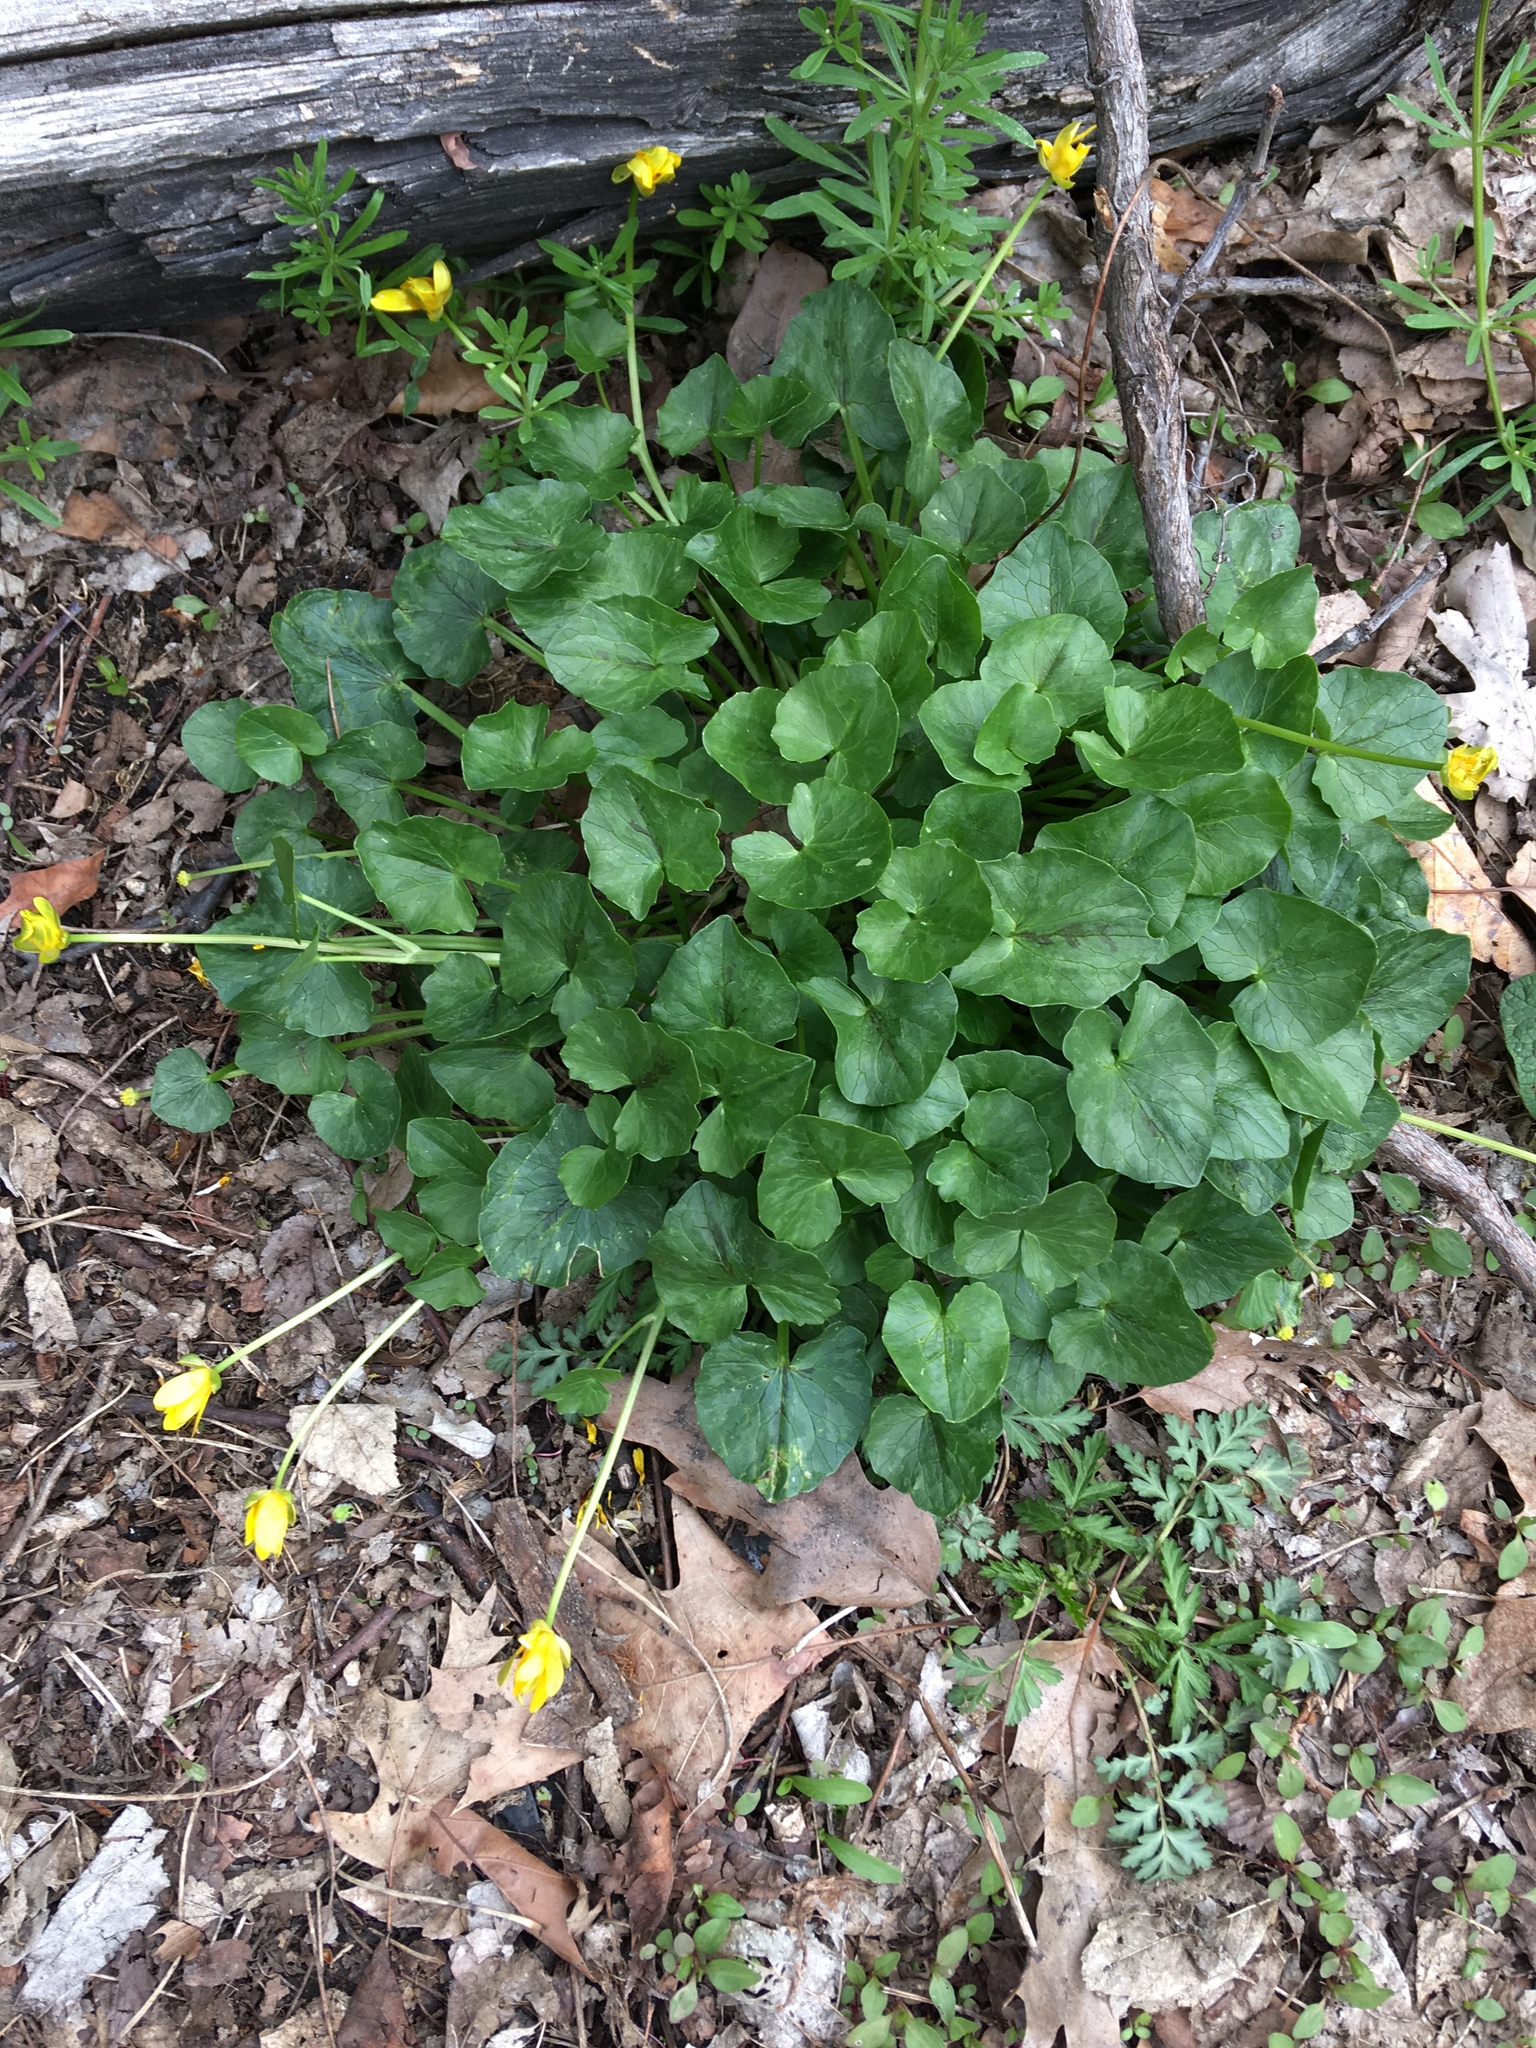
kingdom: Plantae
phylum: Tracheophyta
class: Magnoliopsida
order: Ranunculales
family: Ranunculaceae
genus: Ficaria
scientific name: Ficaria verna
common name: Lesser celandine
